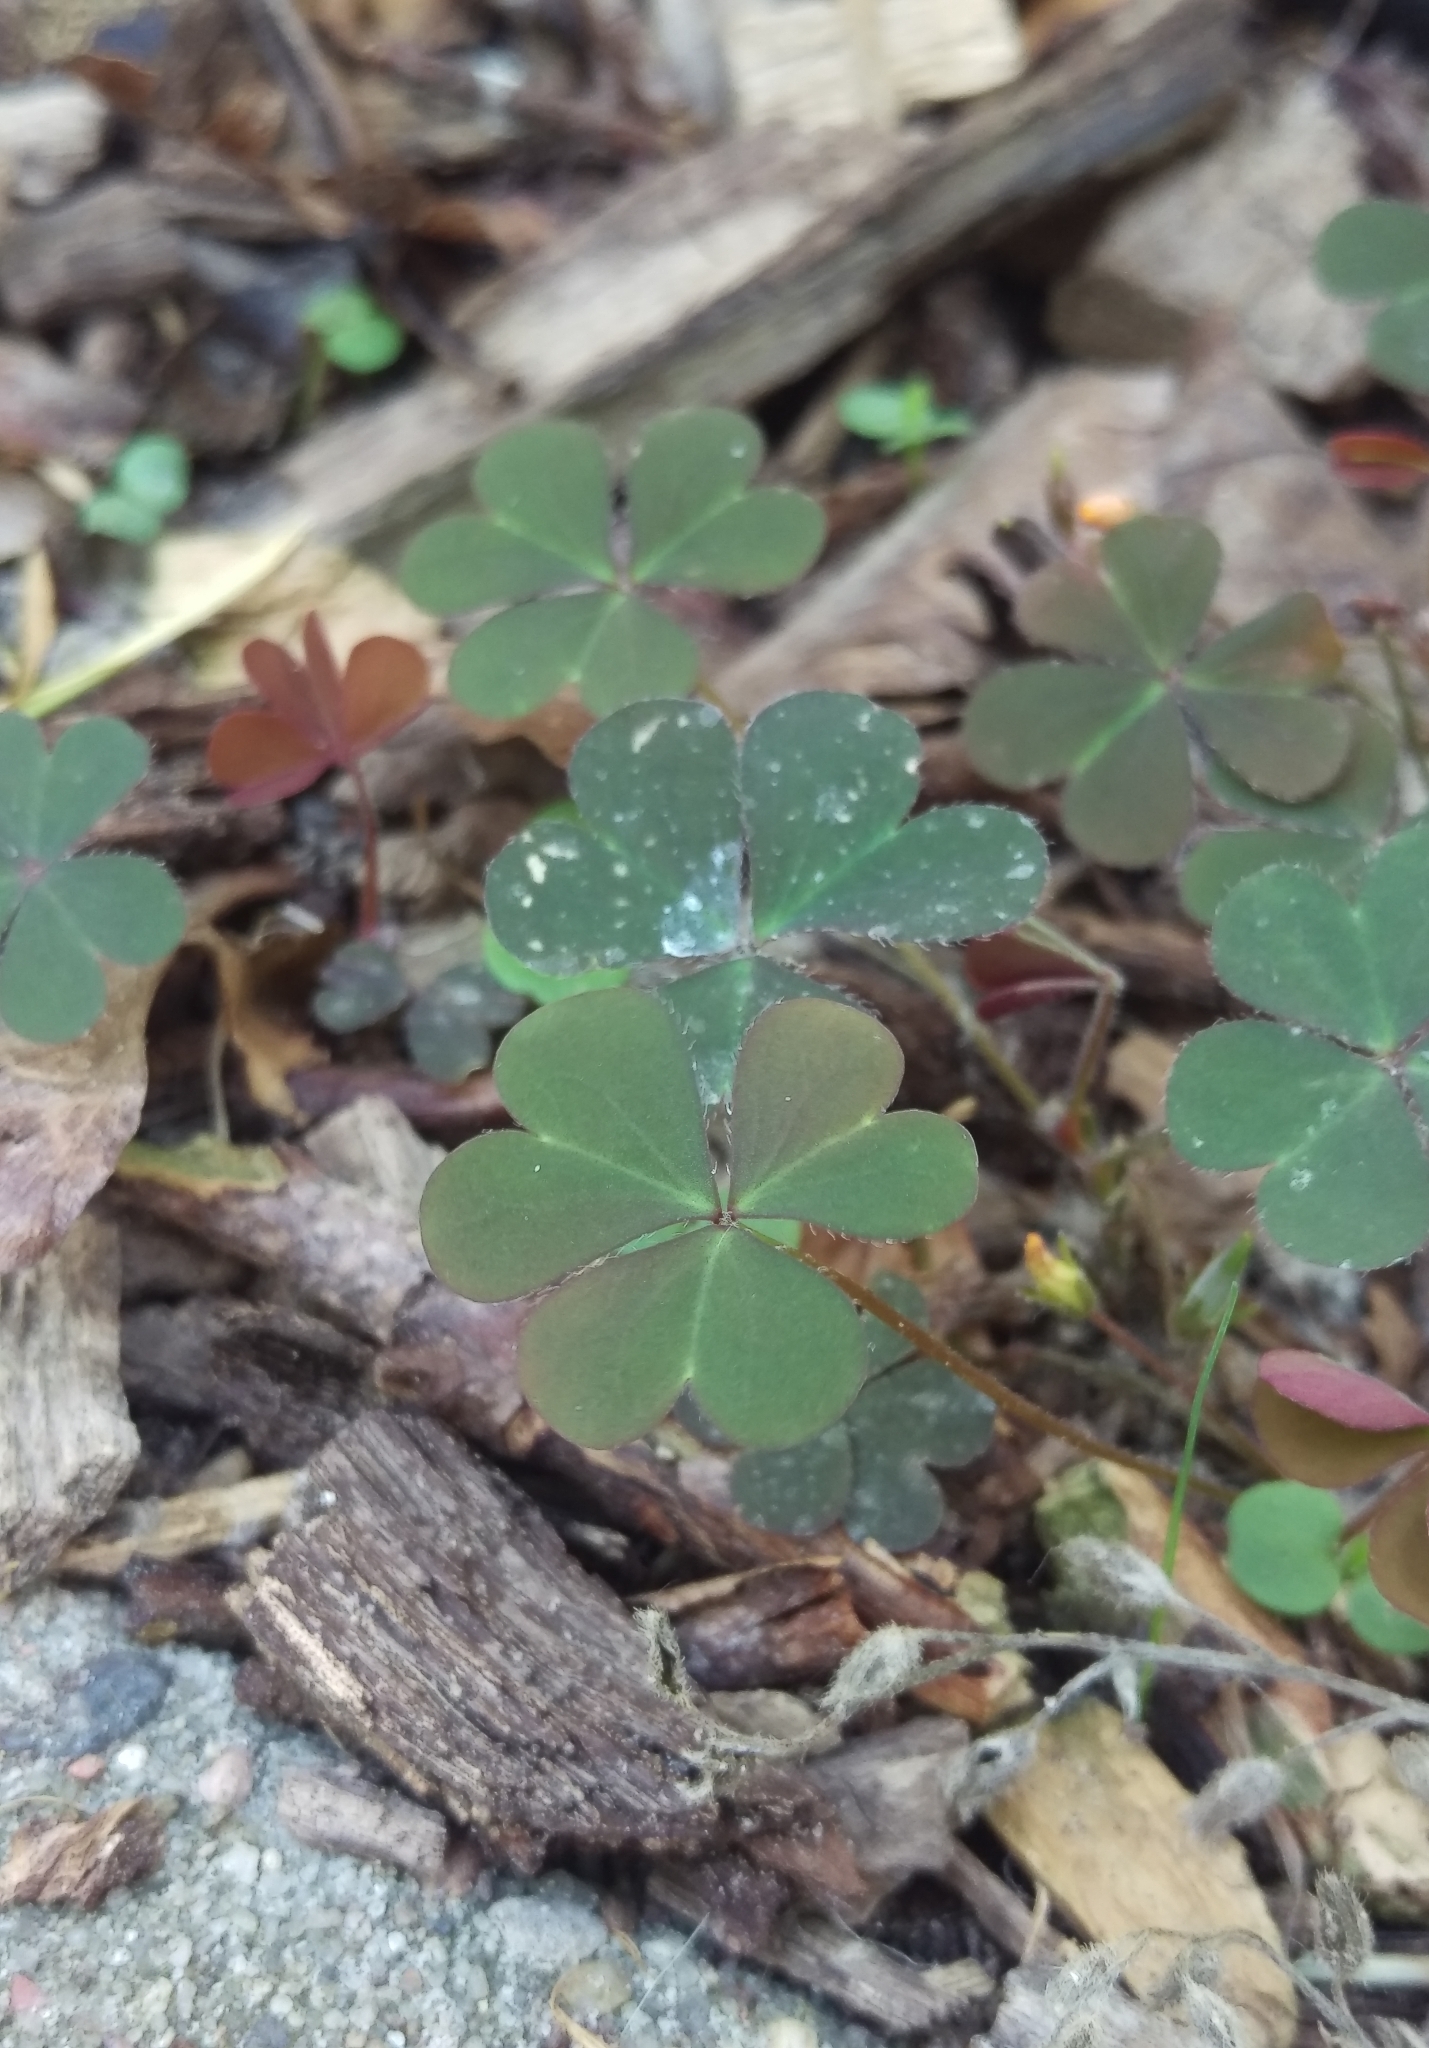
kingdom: Plantae
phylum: Tracheophyta
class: Magnoliopsida
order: Oxalidales
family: Oxalidaceae
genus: Oxalis
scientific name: Oxalis corniculata
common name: Procumbent yellow-sorrel
